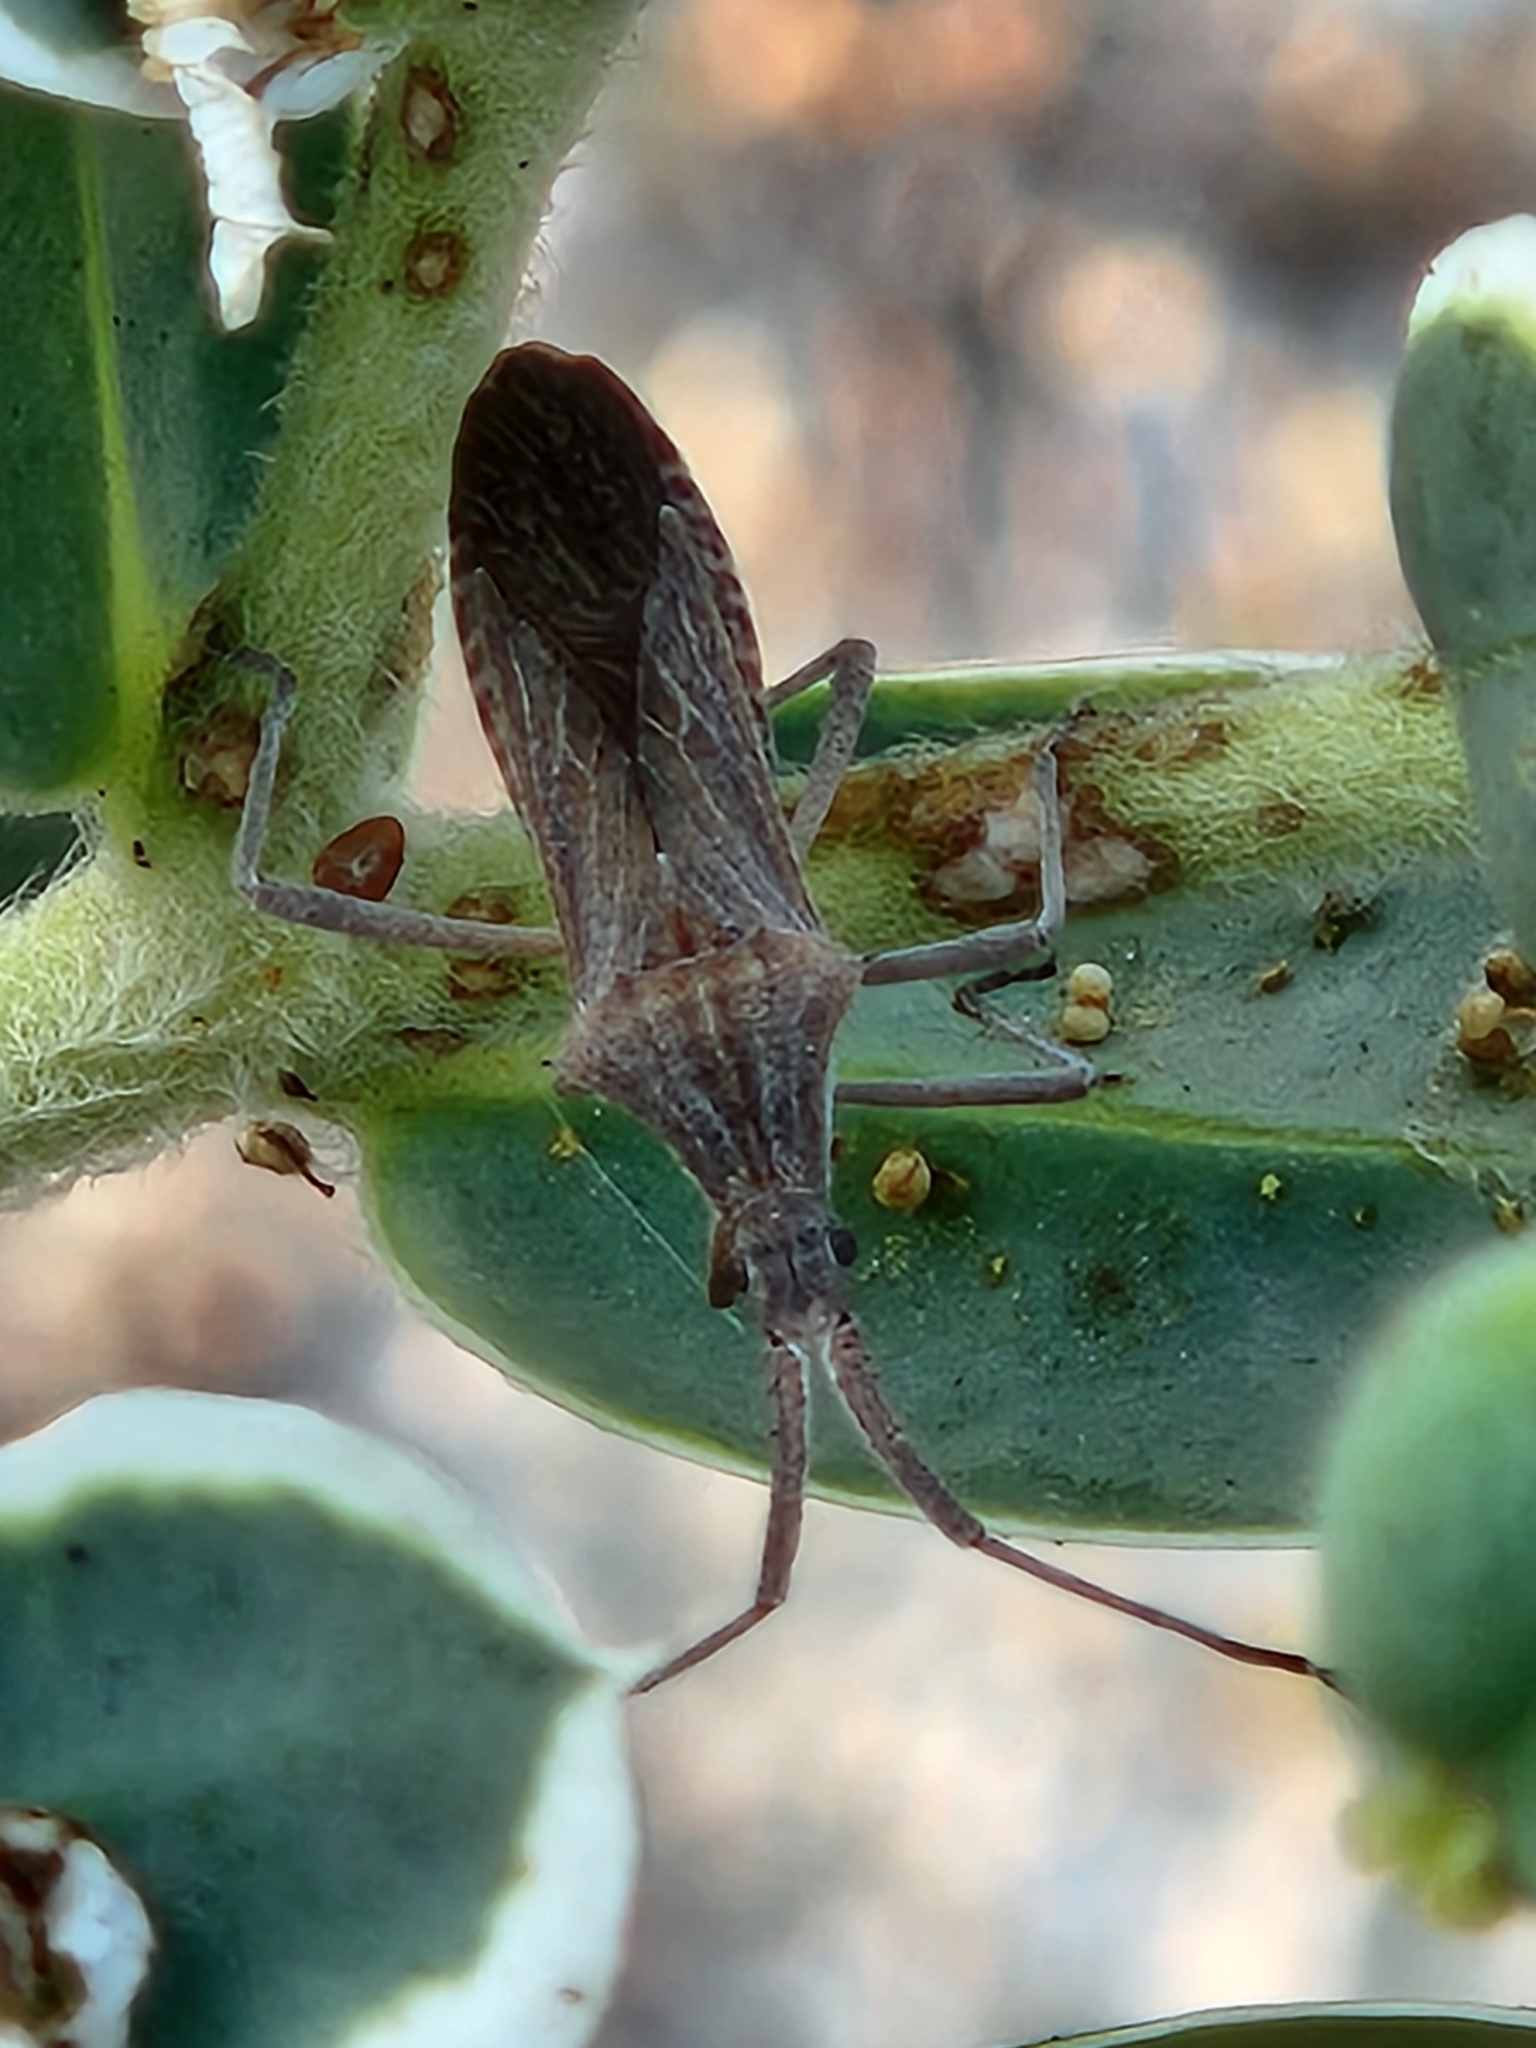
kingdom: Animalia
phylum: Arthropoda
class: Insecta
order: Hemiptera
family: Coreidae
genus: Chariesterus
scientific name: Chariesterus antennator
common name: Flat horned coreid
